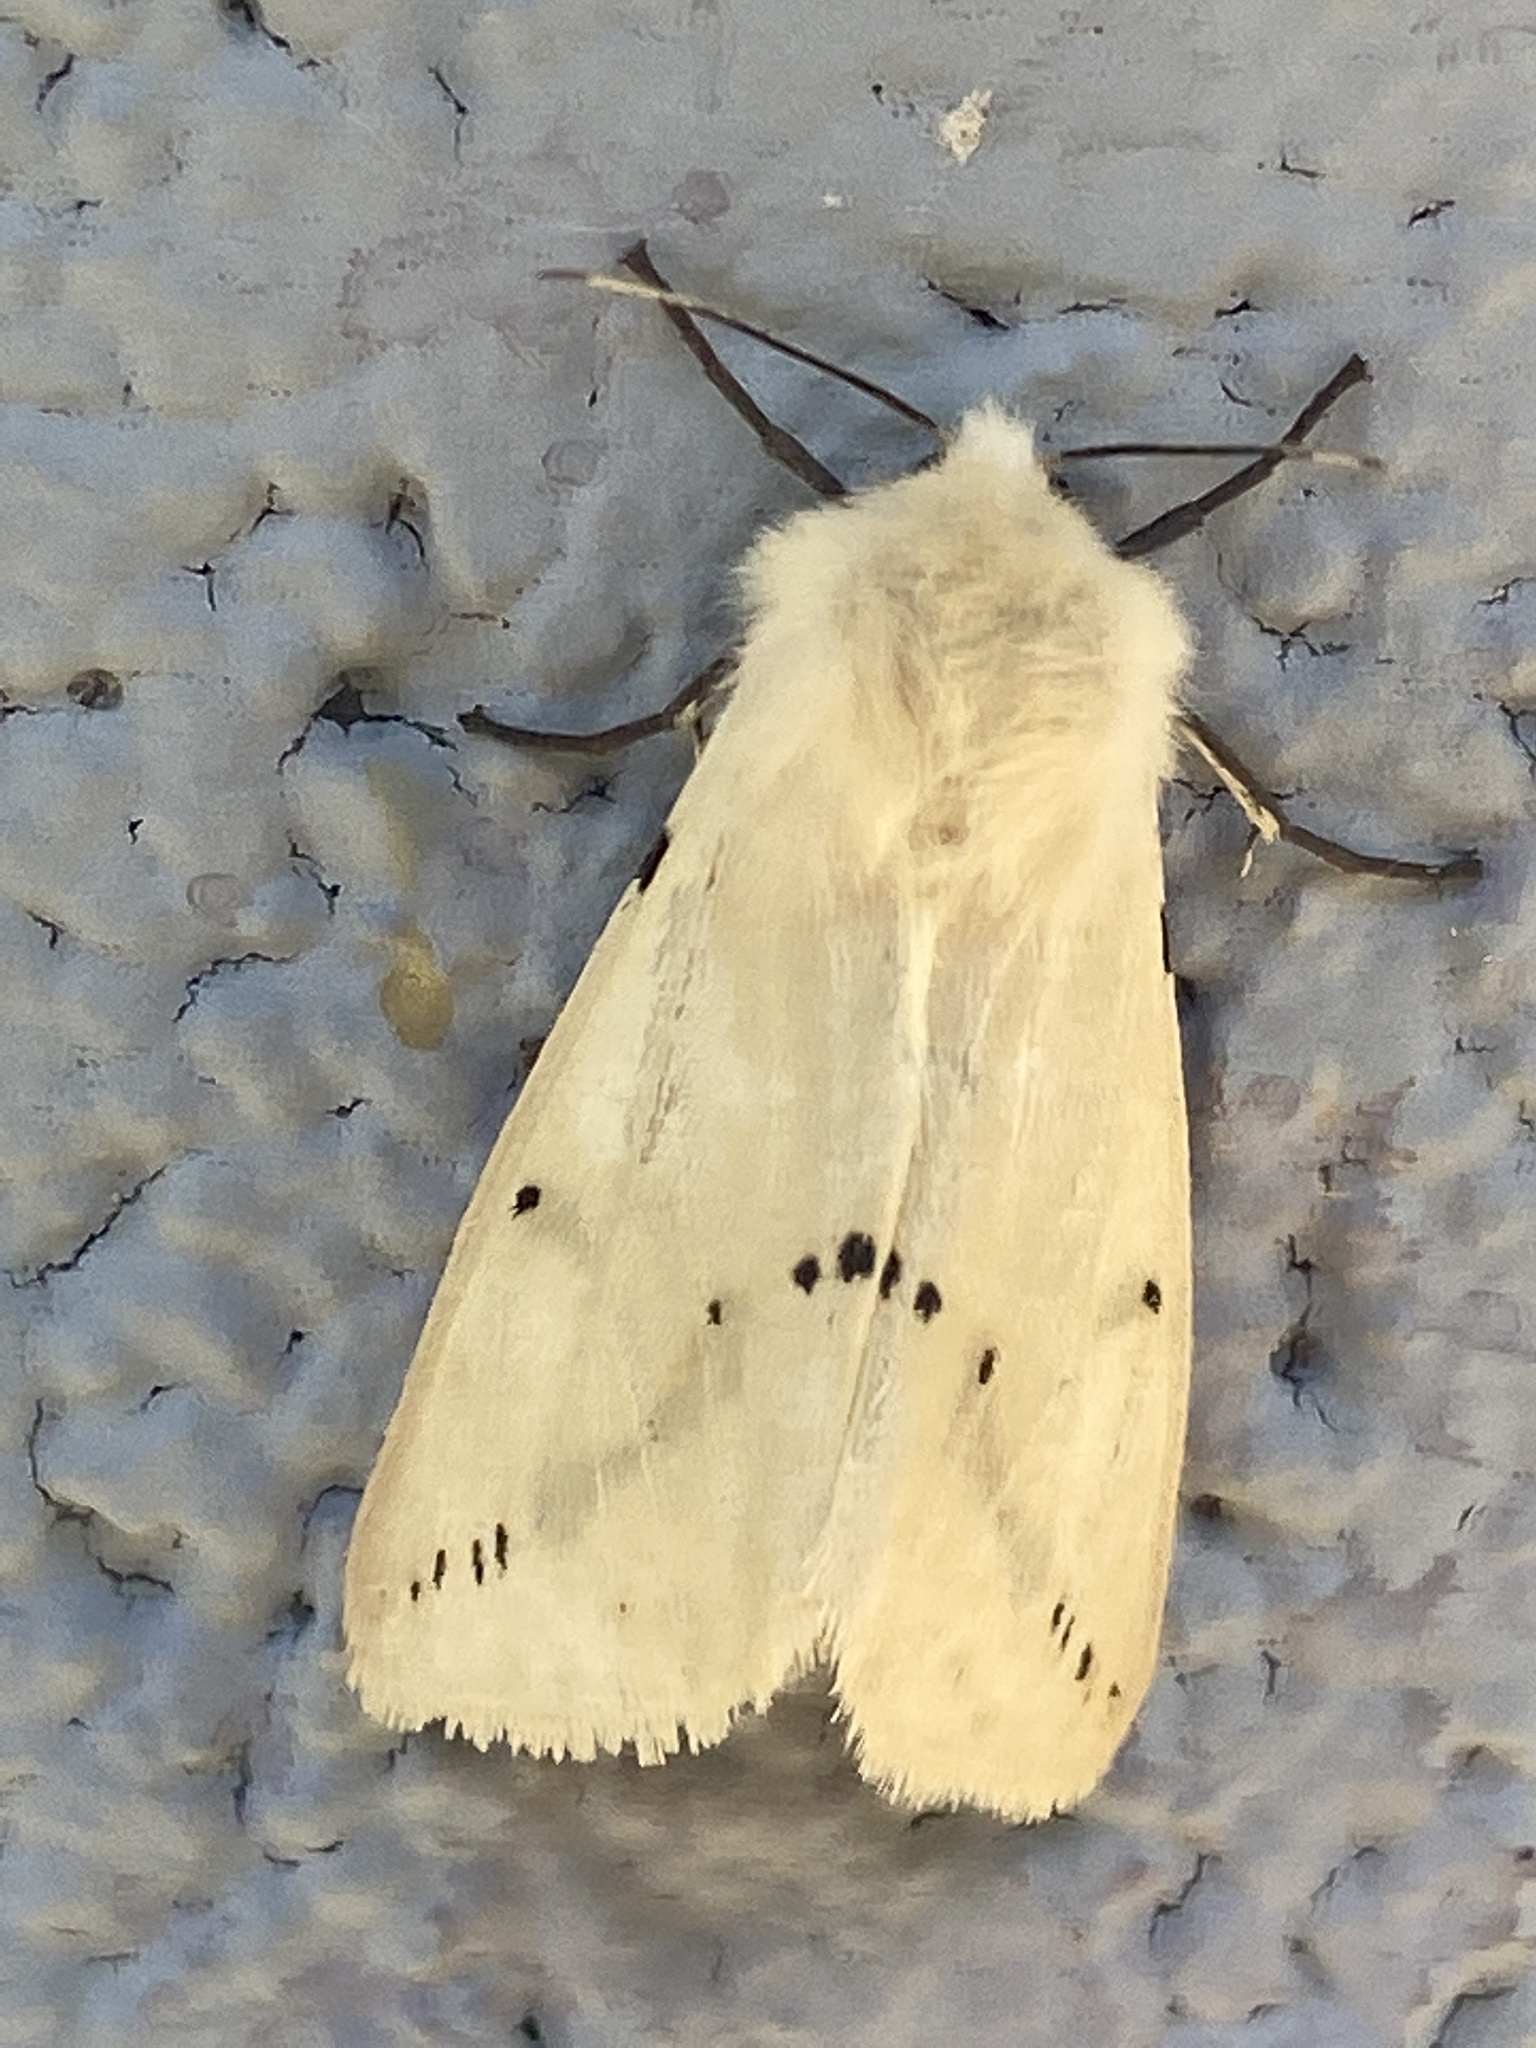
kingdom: Animalia
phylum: Arthropoda
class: Insecta
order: Lepidoptera
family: Erebidae
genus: Spilarctia
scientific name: Spilarctia lutea
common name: Buff ermine
